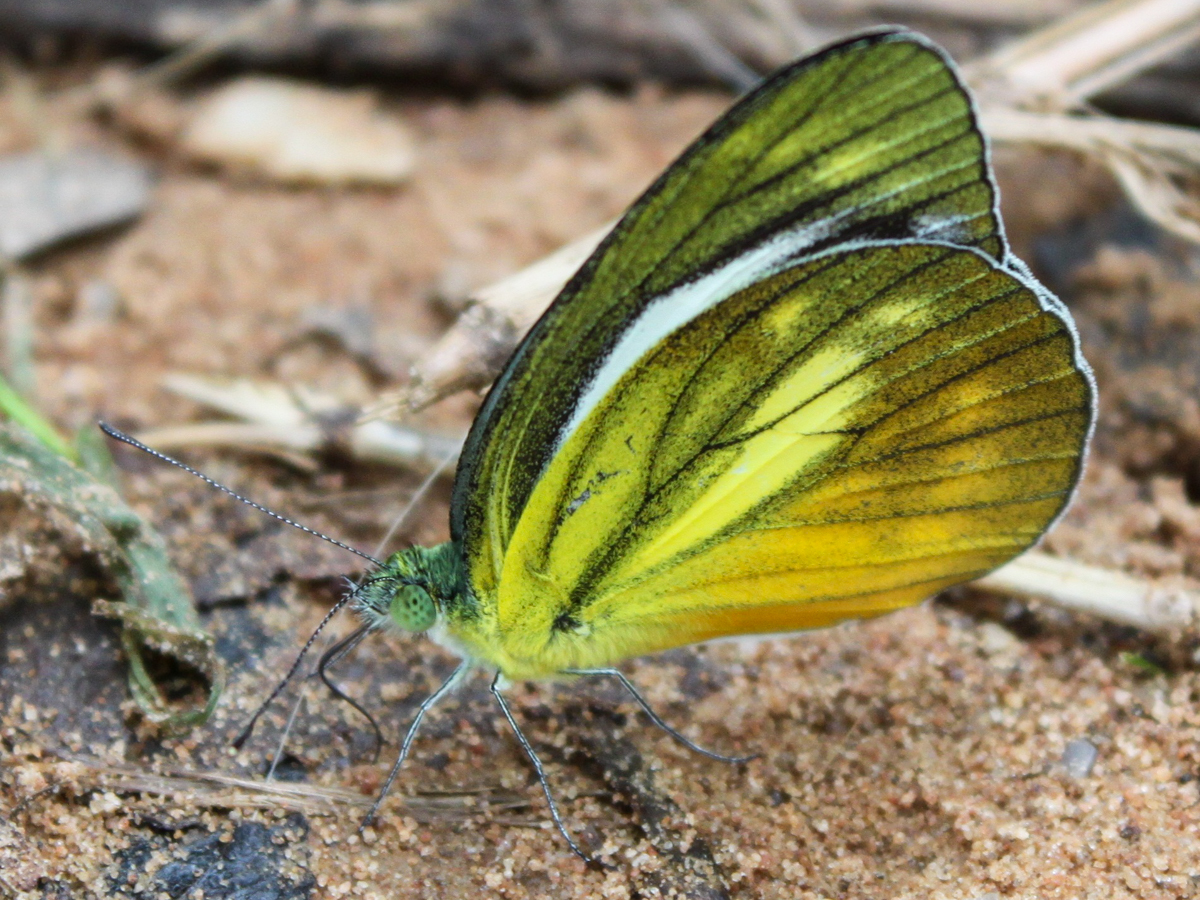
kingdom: Animalia
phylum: Arthropoda
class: Insecta
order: Lepidoptera
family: Pieridae
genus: Cepora
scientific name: Cepora nadina
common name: Lesser gull
